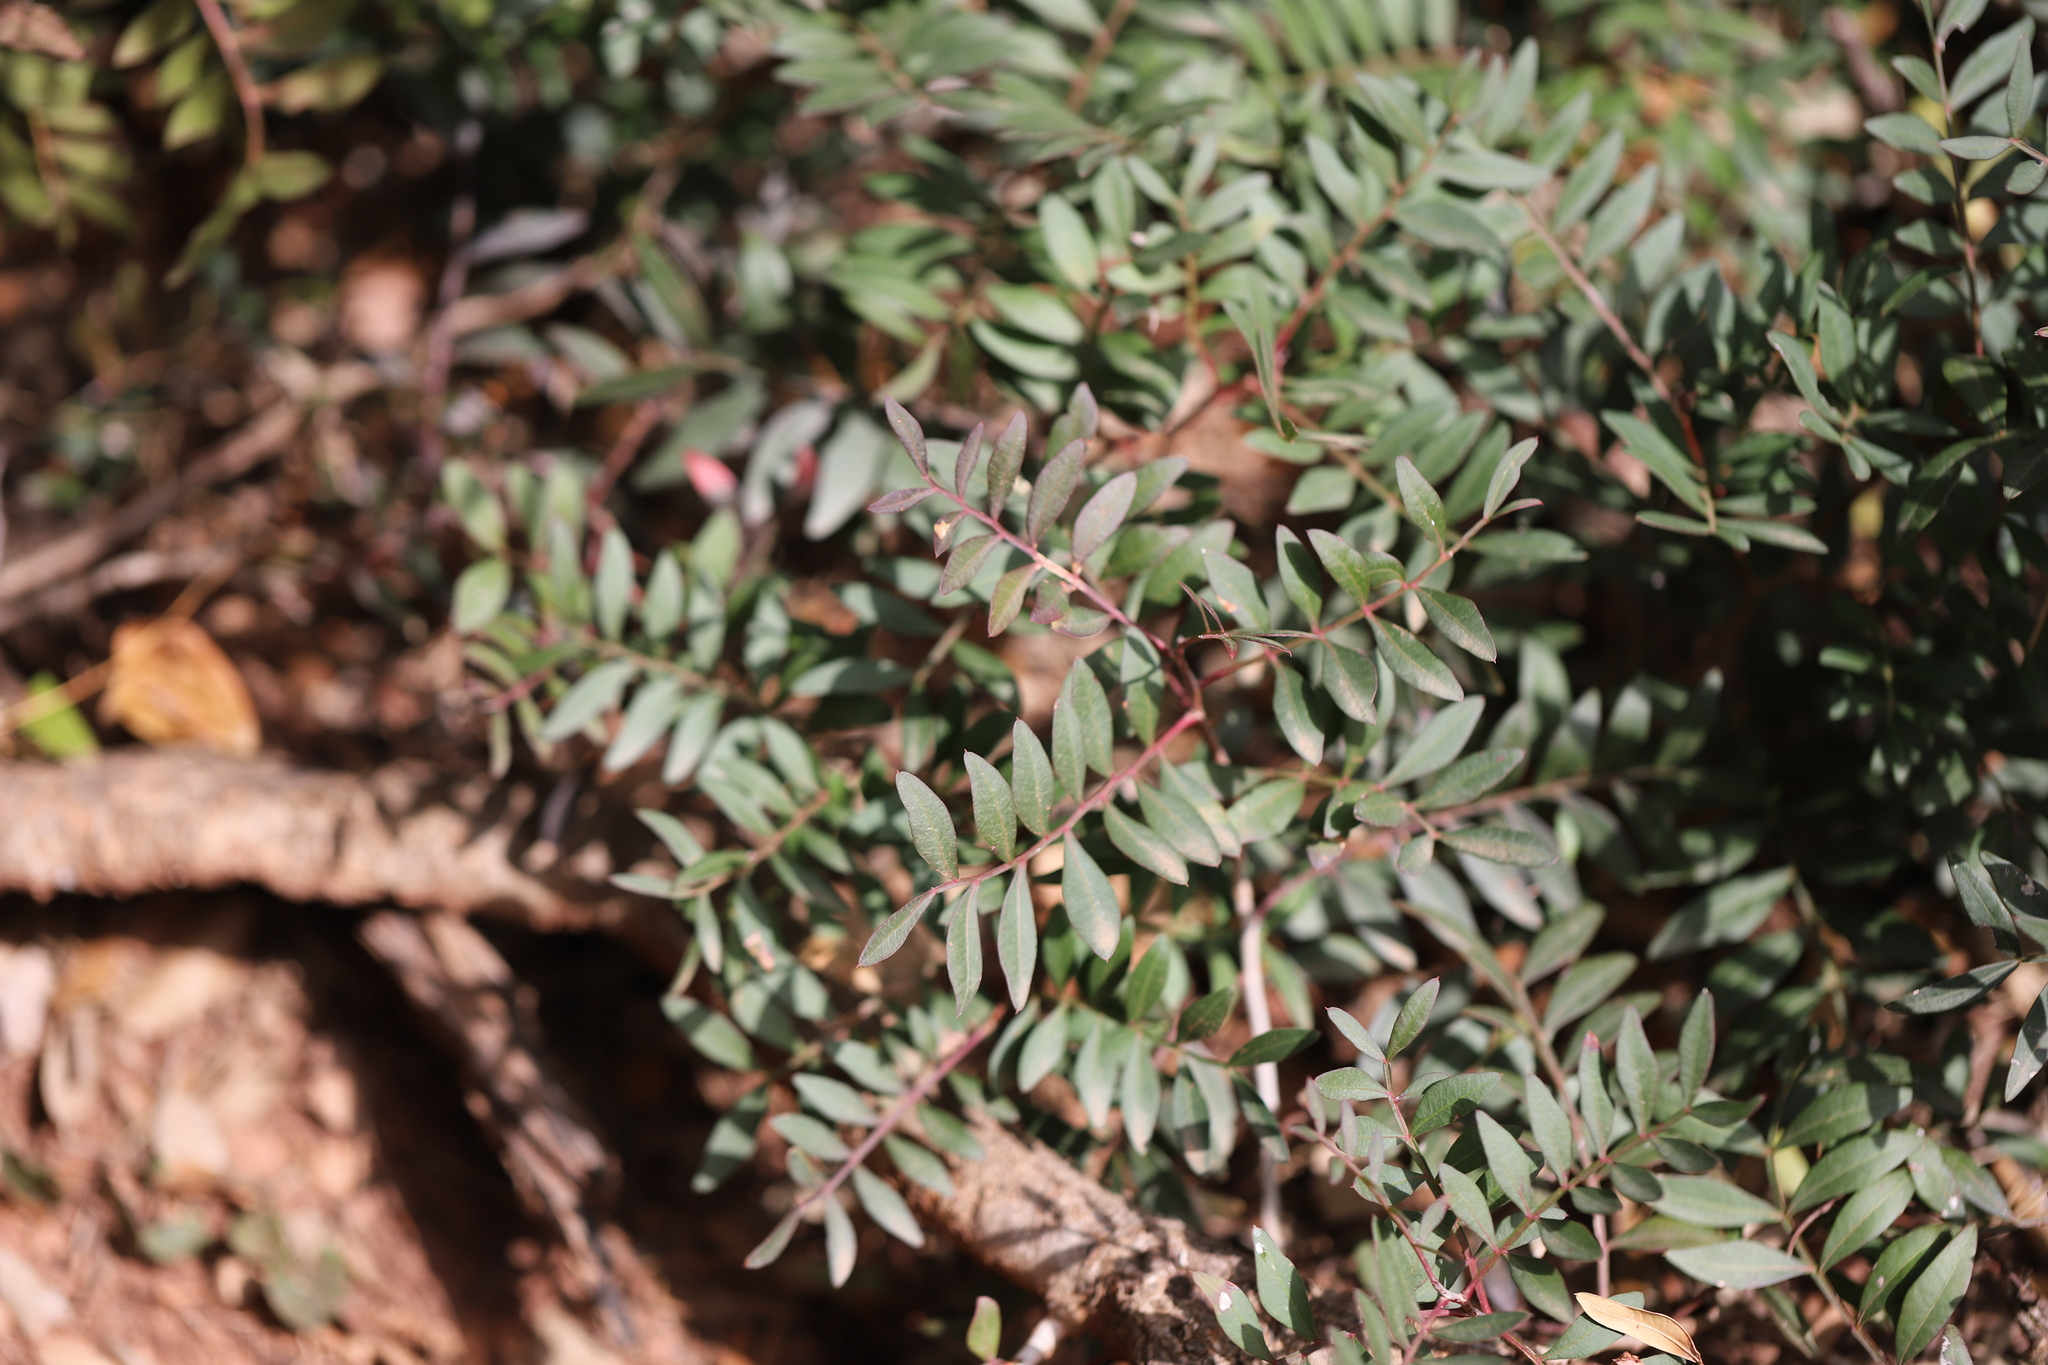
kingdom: Plantae
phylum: Tracheophyta
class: Magnoliopsida
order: Sapindales
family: Anacardiaceae
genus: Pistacia
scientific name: Pistacia lentiscus
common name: Lentisk
